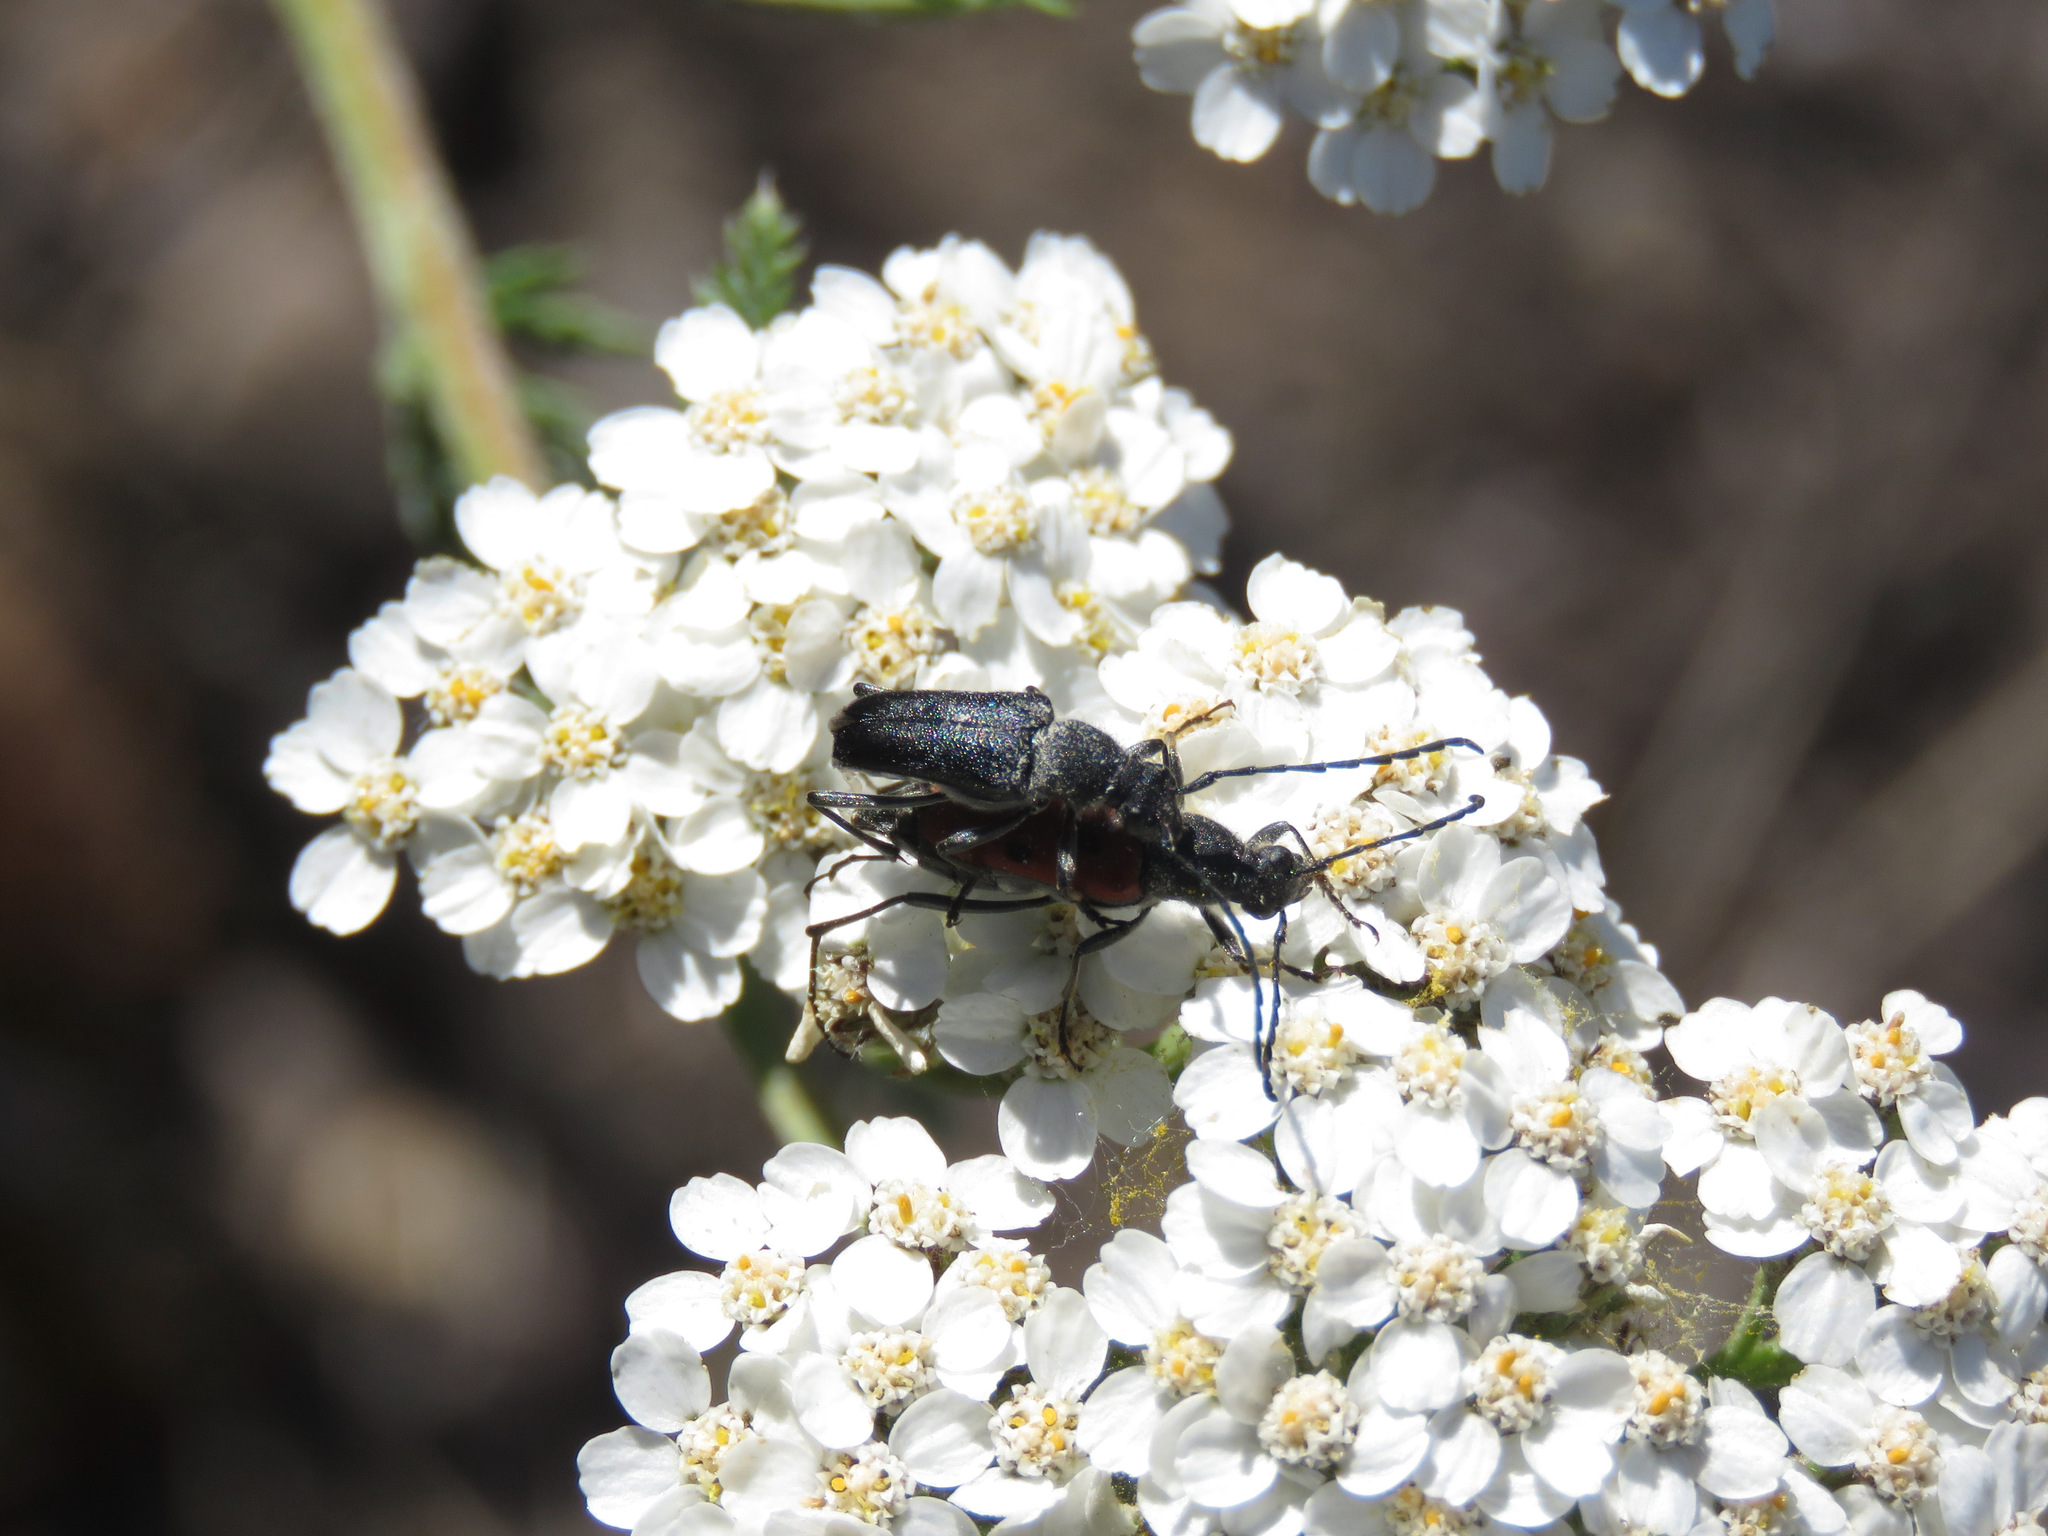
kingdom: Animalia
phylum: Arthropoda
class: Insecta
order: Coleoptera
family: Cerambycidae
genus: Anastrangalia
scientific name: Anastrangalia laetifica
